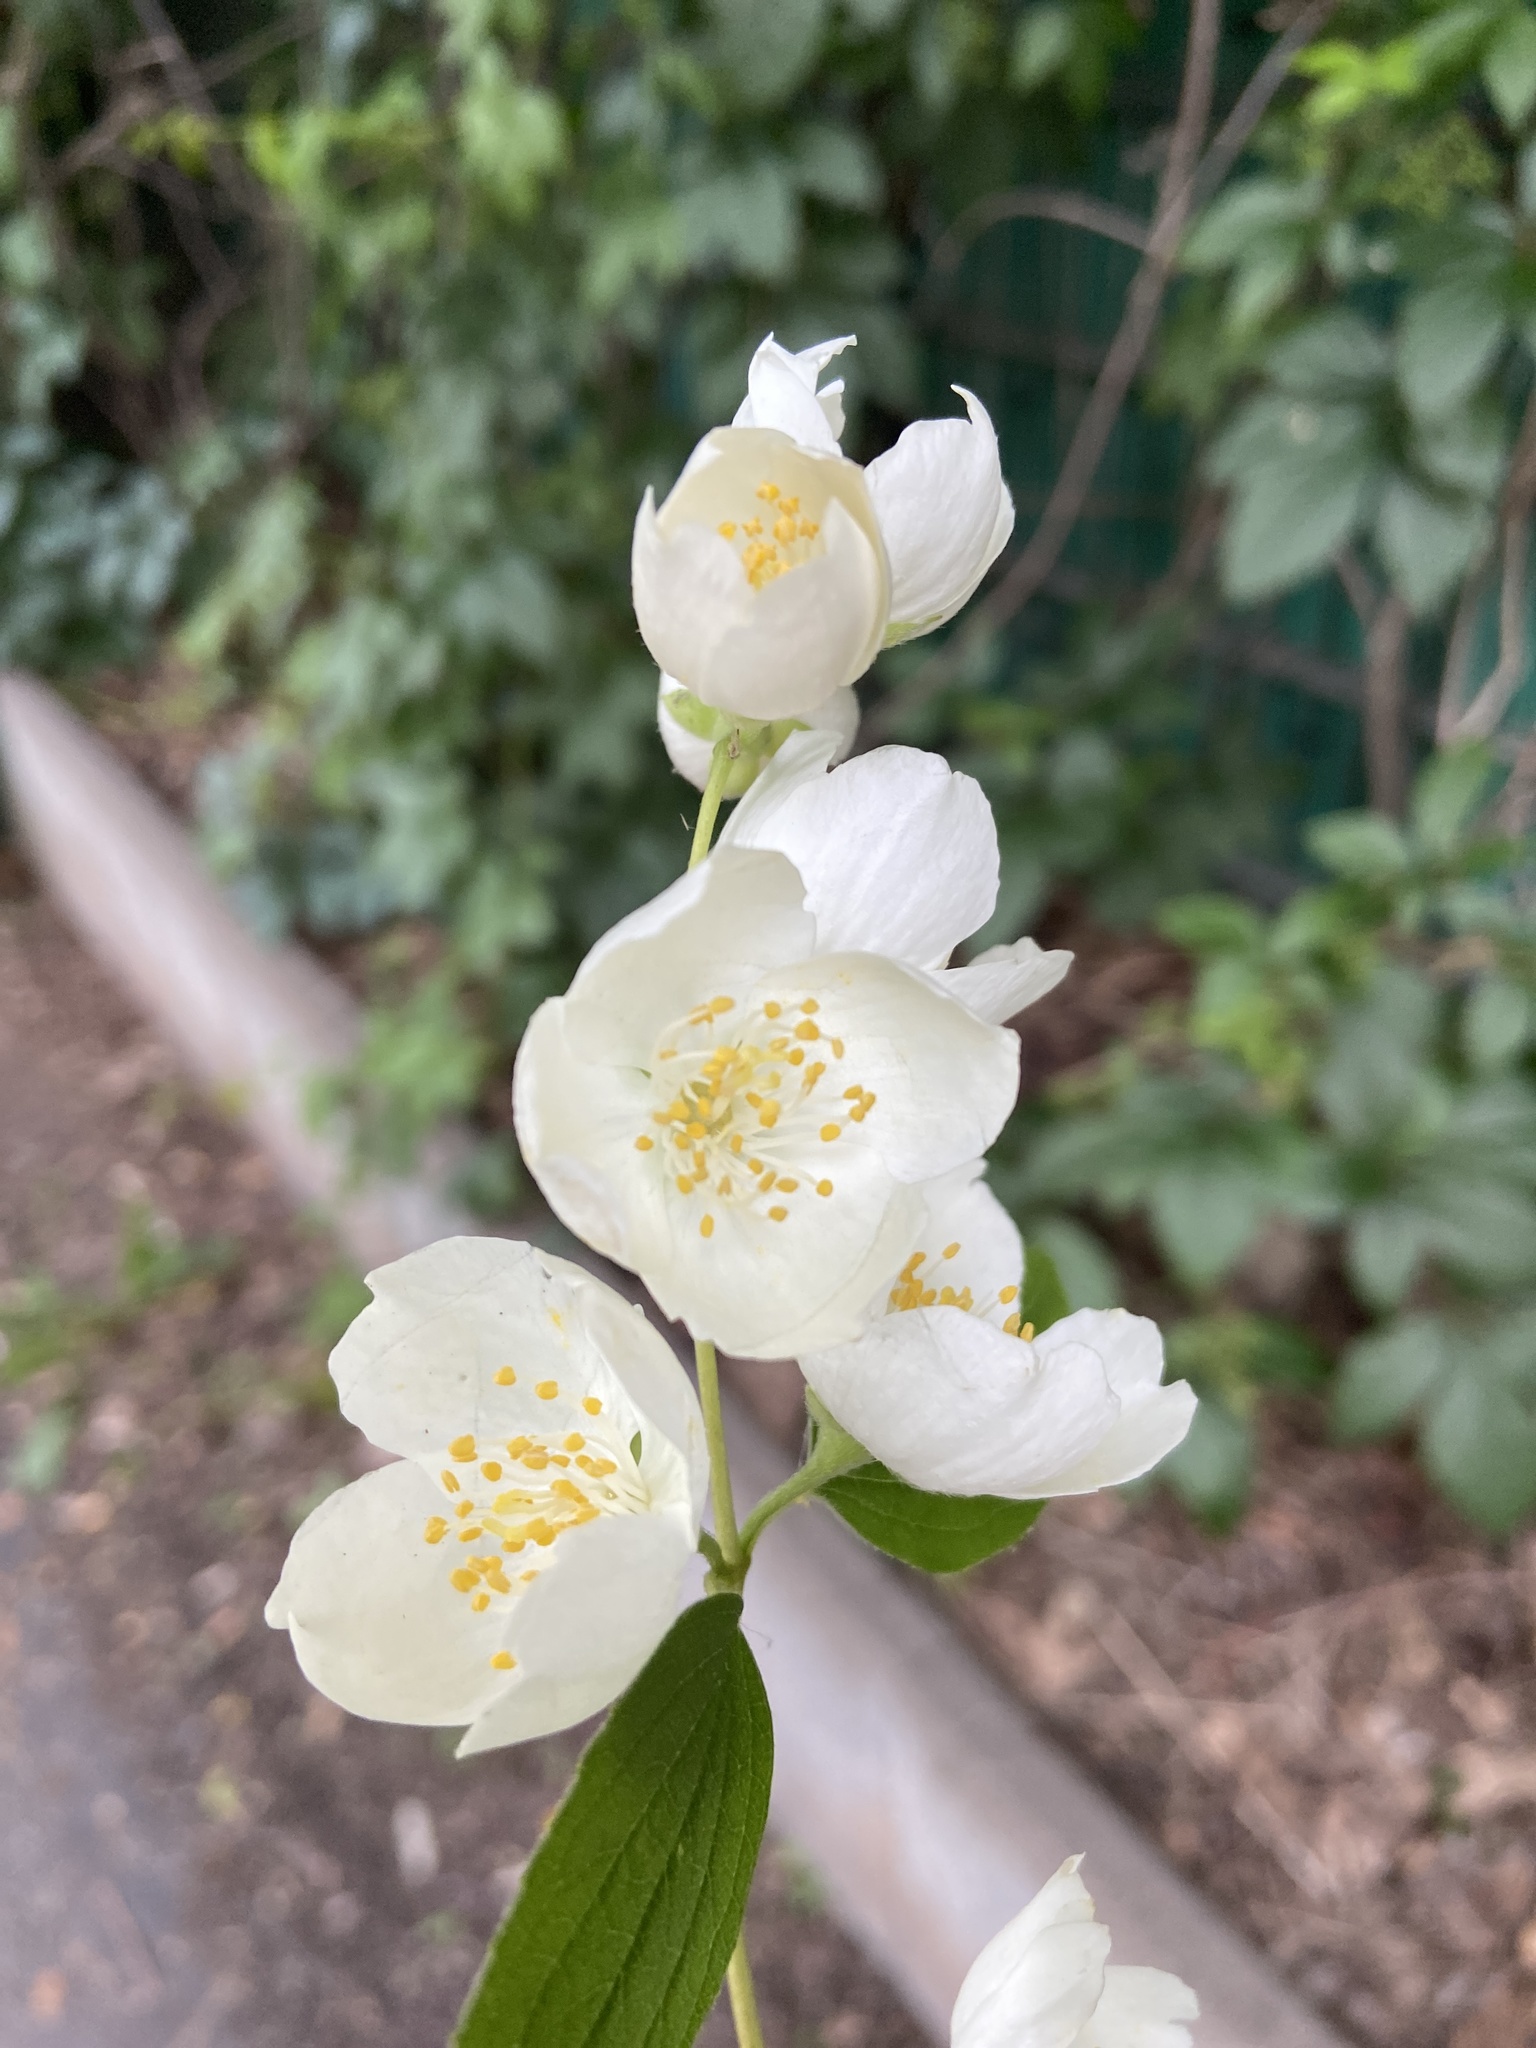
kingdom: Plantae
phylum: Tracheophyta
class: Magnoliopsida
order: Cornales
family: Hydrangeaceae
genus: Philadelphus
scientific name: Philadelphus coronarius
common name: Mock orange
